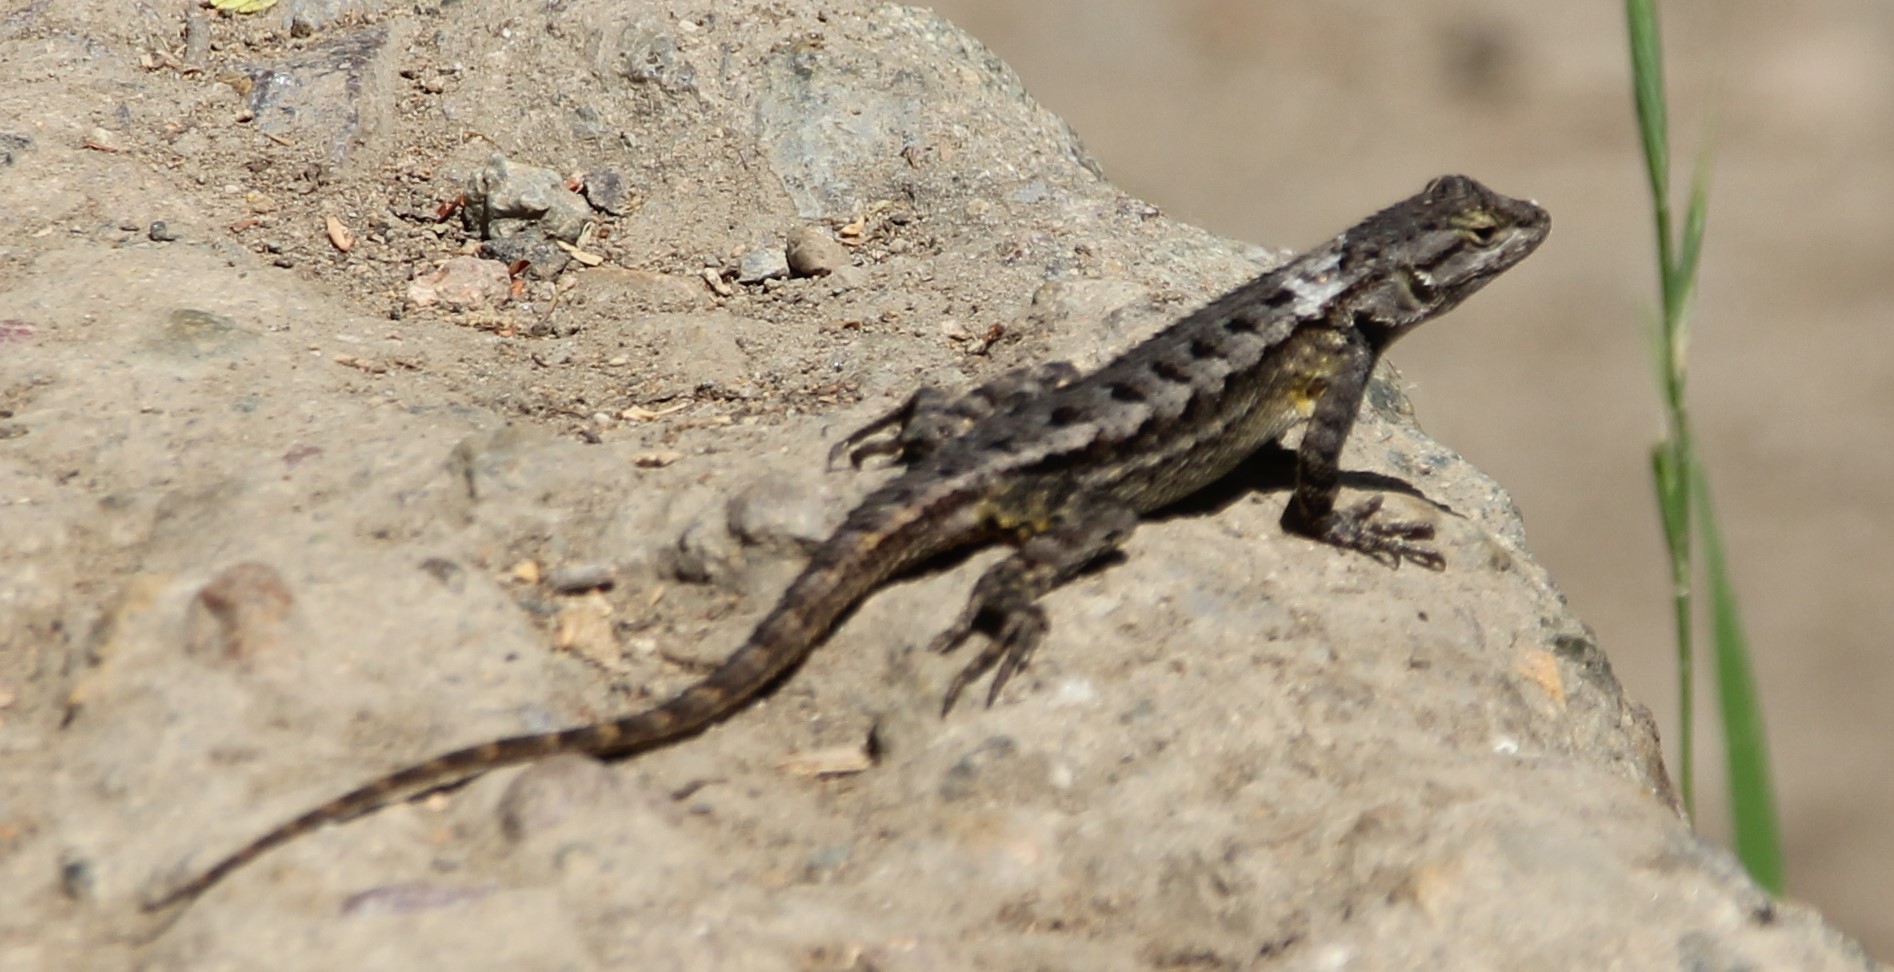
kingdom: Animalia
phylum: Chordata
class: Squamata
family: Phrynosomatidae
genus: Sceloporus
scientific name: Sceloporus occidentalis
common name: Western fence lizard
